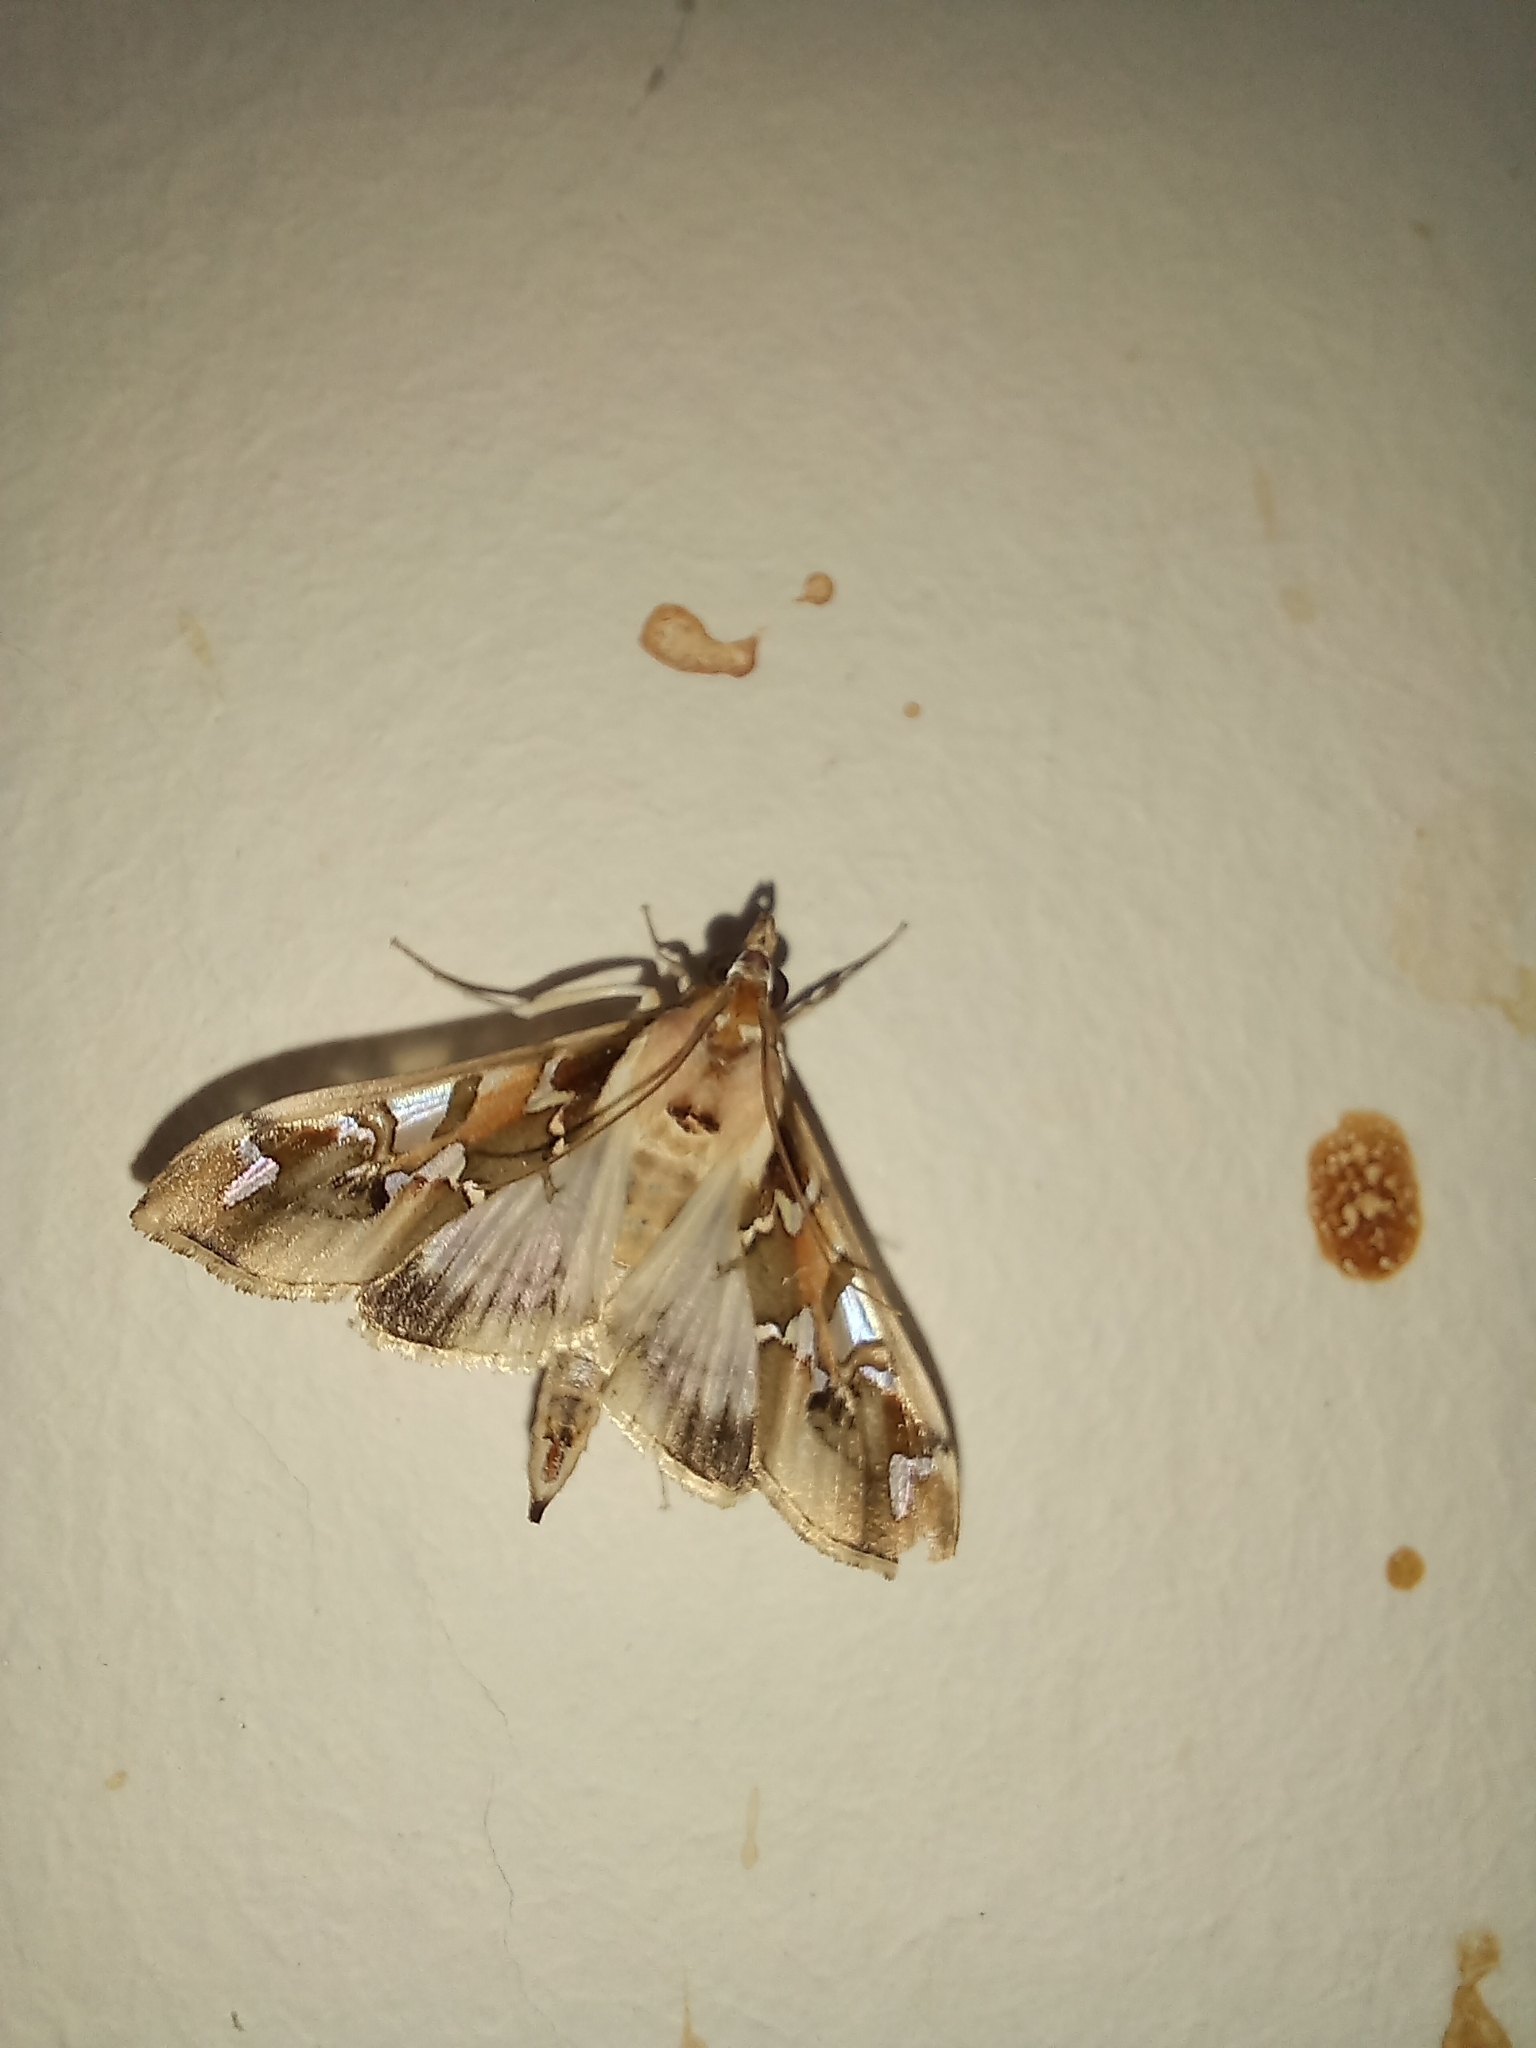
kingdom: Animalia
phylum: Arthropoda
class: Insecta
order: Lepidoptera
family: Crambidae
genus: Terastia
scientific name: Terastia margaritis
